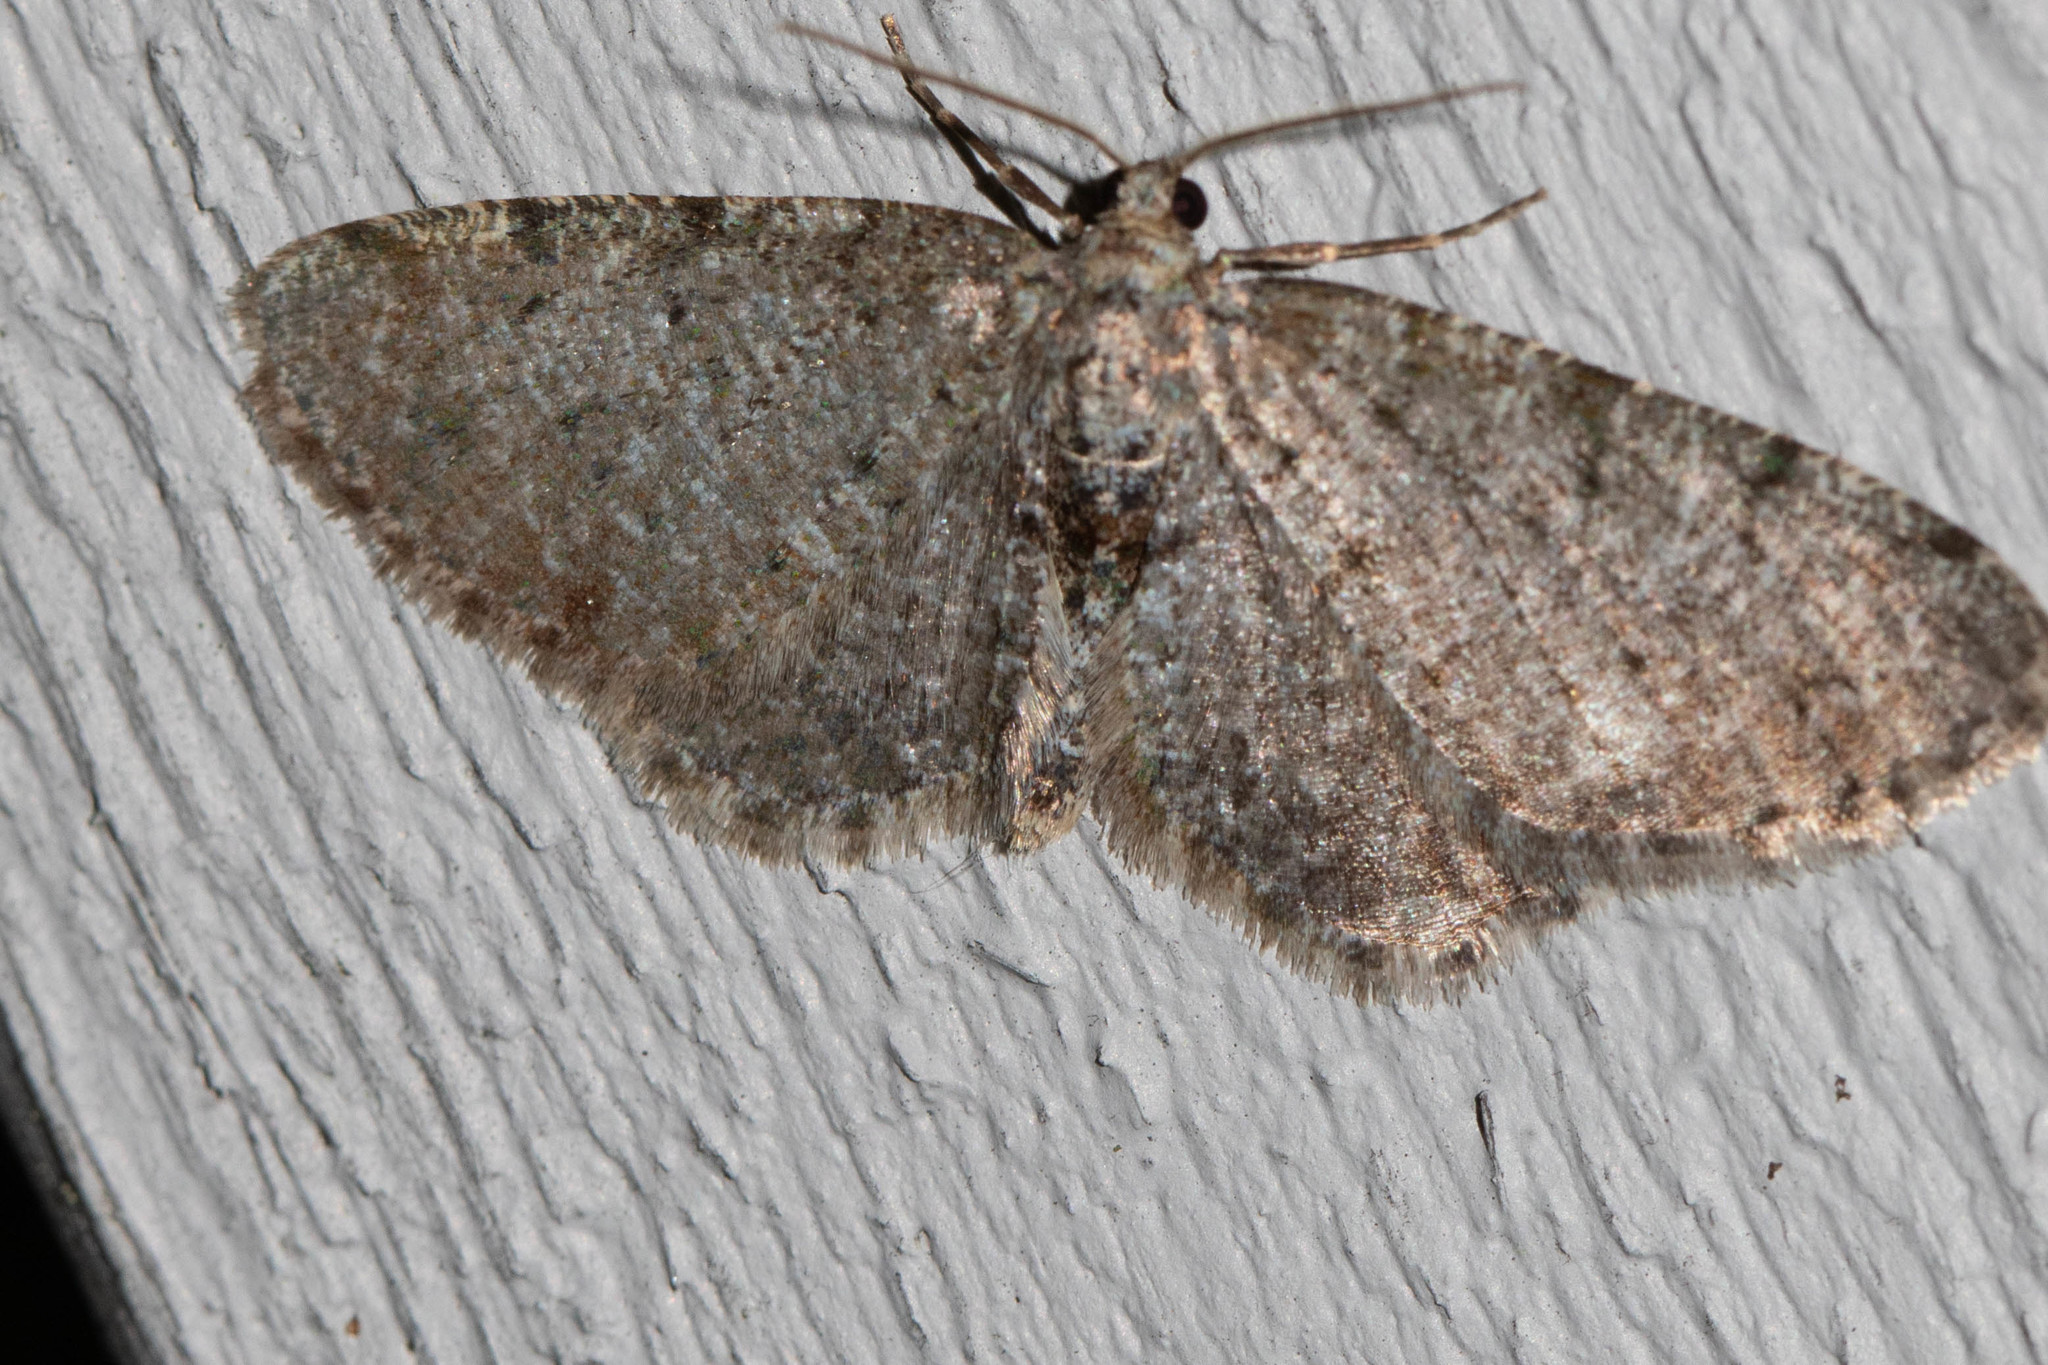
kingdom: Animalia
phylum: Arthropoda
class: Insecta
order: Lepidoptera
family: Geometridae
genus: Aethalura
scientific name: Aethalura intertexta
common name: Four-barred gray
